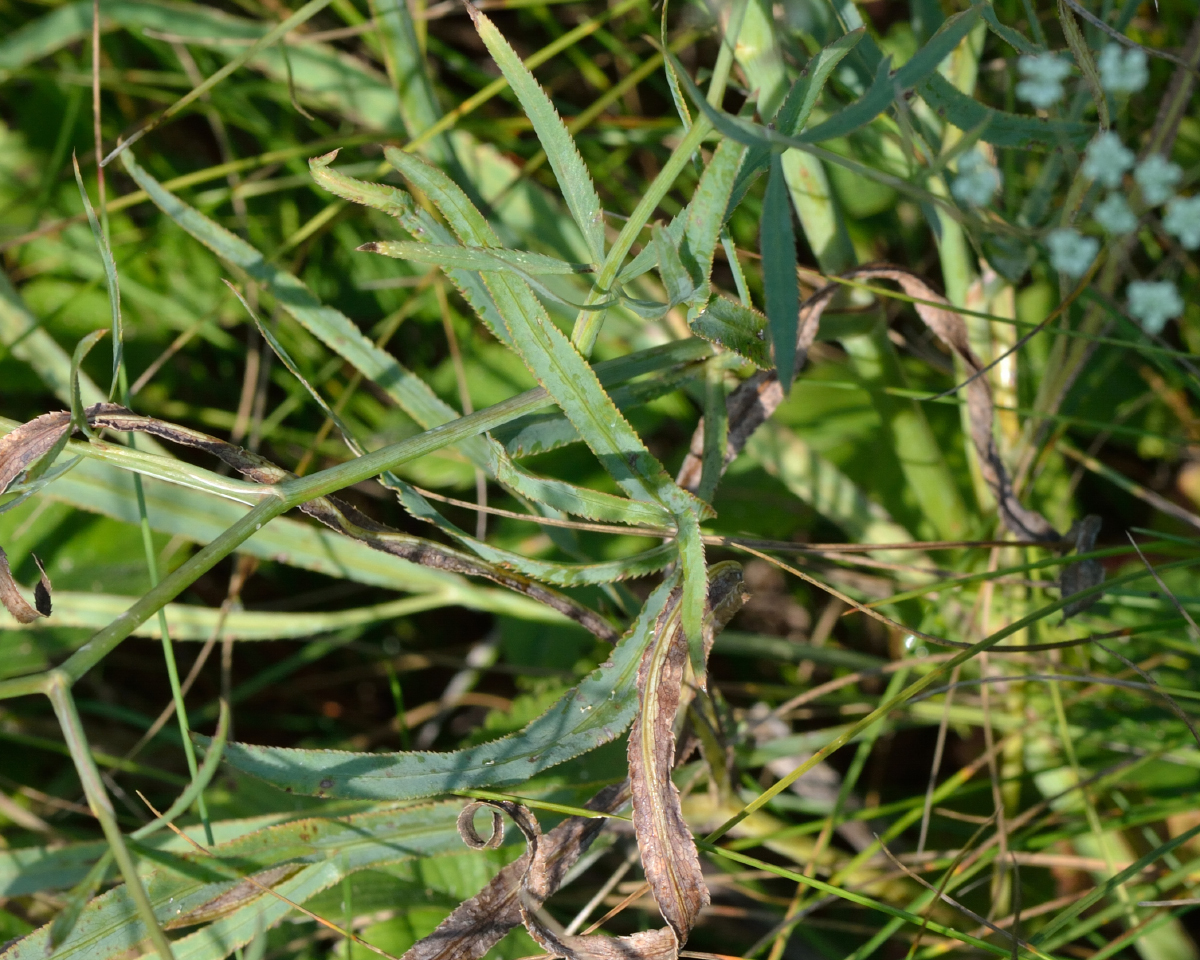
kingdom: Plantae
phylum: Tracheophyta
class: Magnoliopsida
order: Apiales
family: Apiaceae
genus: Falcaria
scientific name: Falcaria vulgaris
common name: Longleaf
